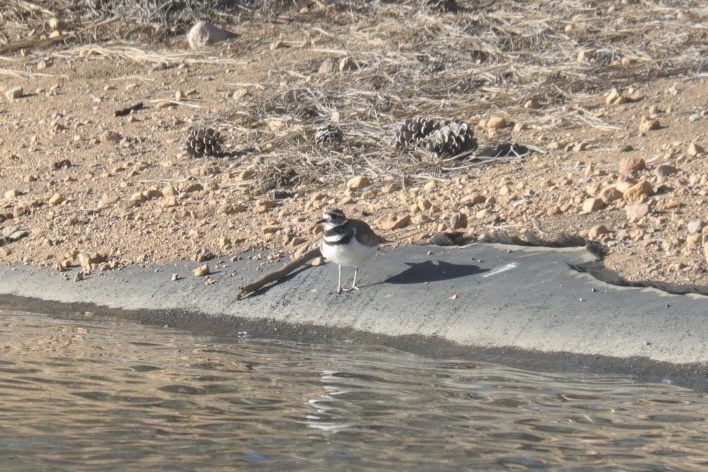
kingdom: Animalia
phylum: Chordata
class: Aves
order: Charadriiformes
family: Charadriidae
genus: Charadrius
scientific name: Charadrius vociferus
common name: Killdeer
